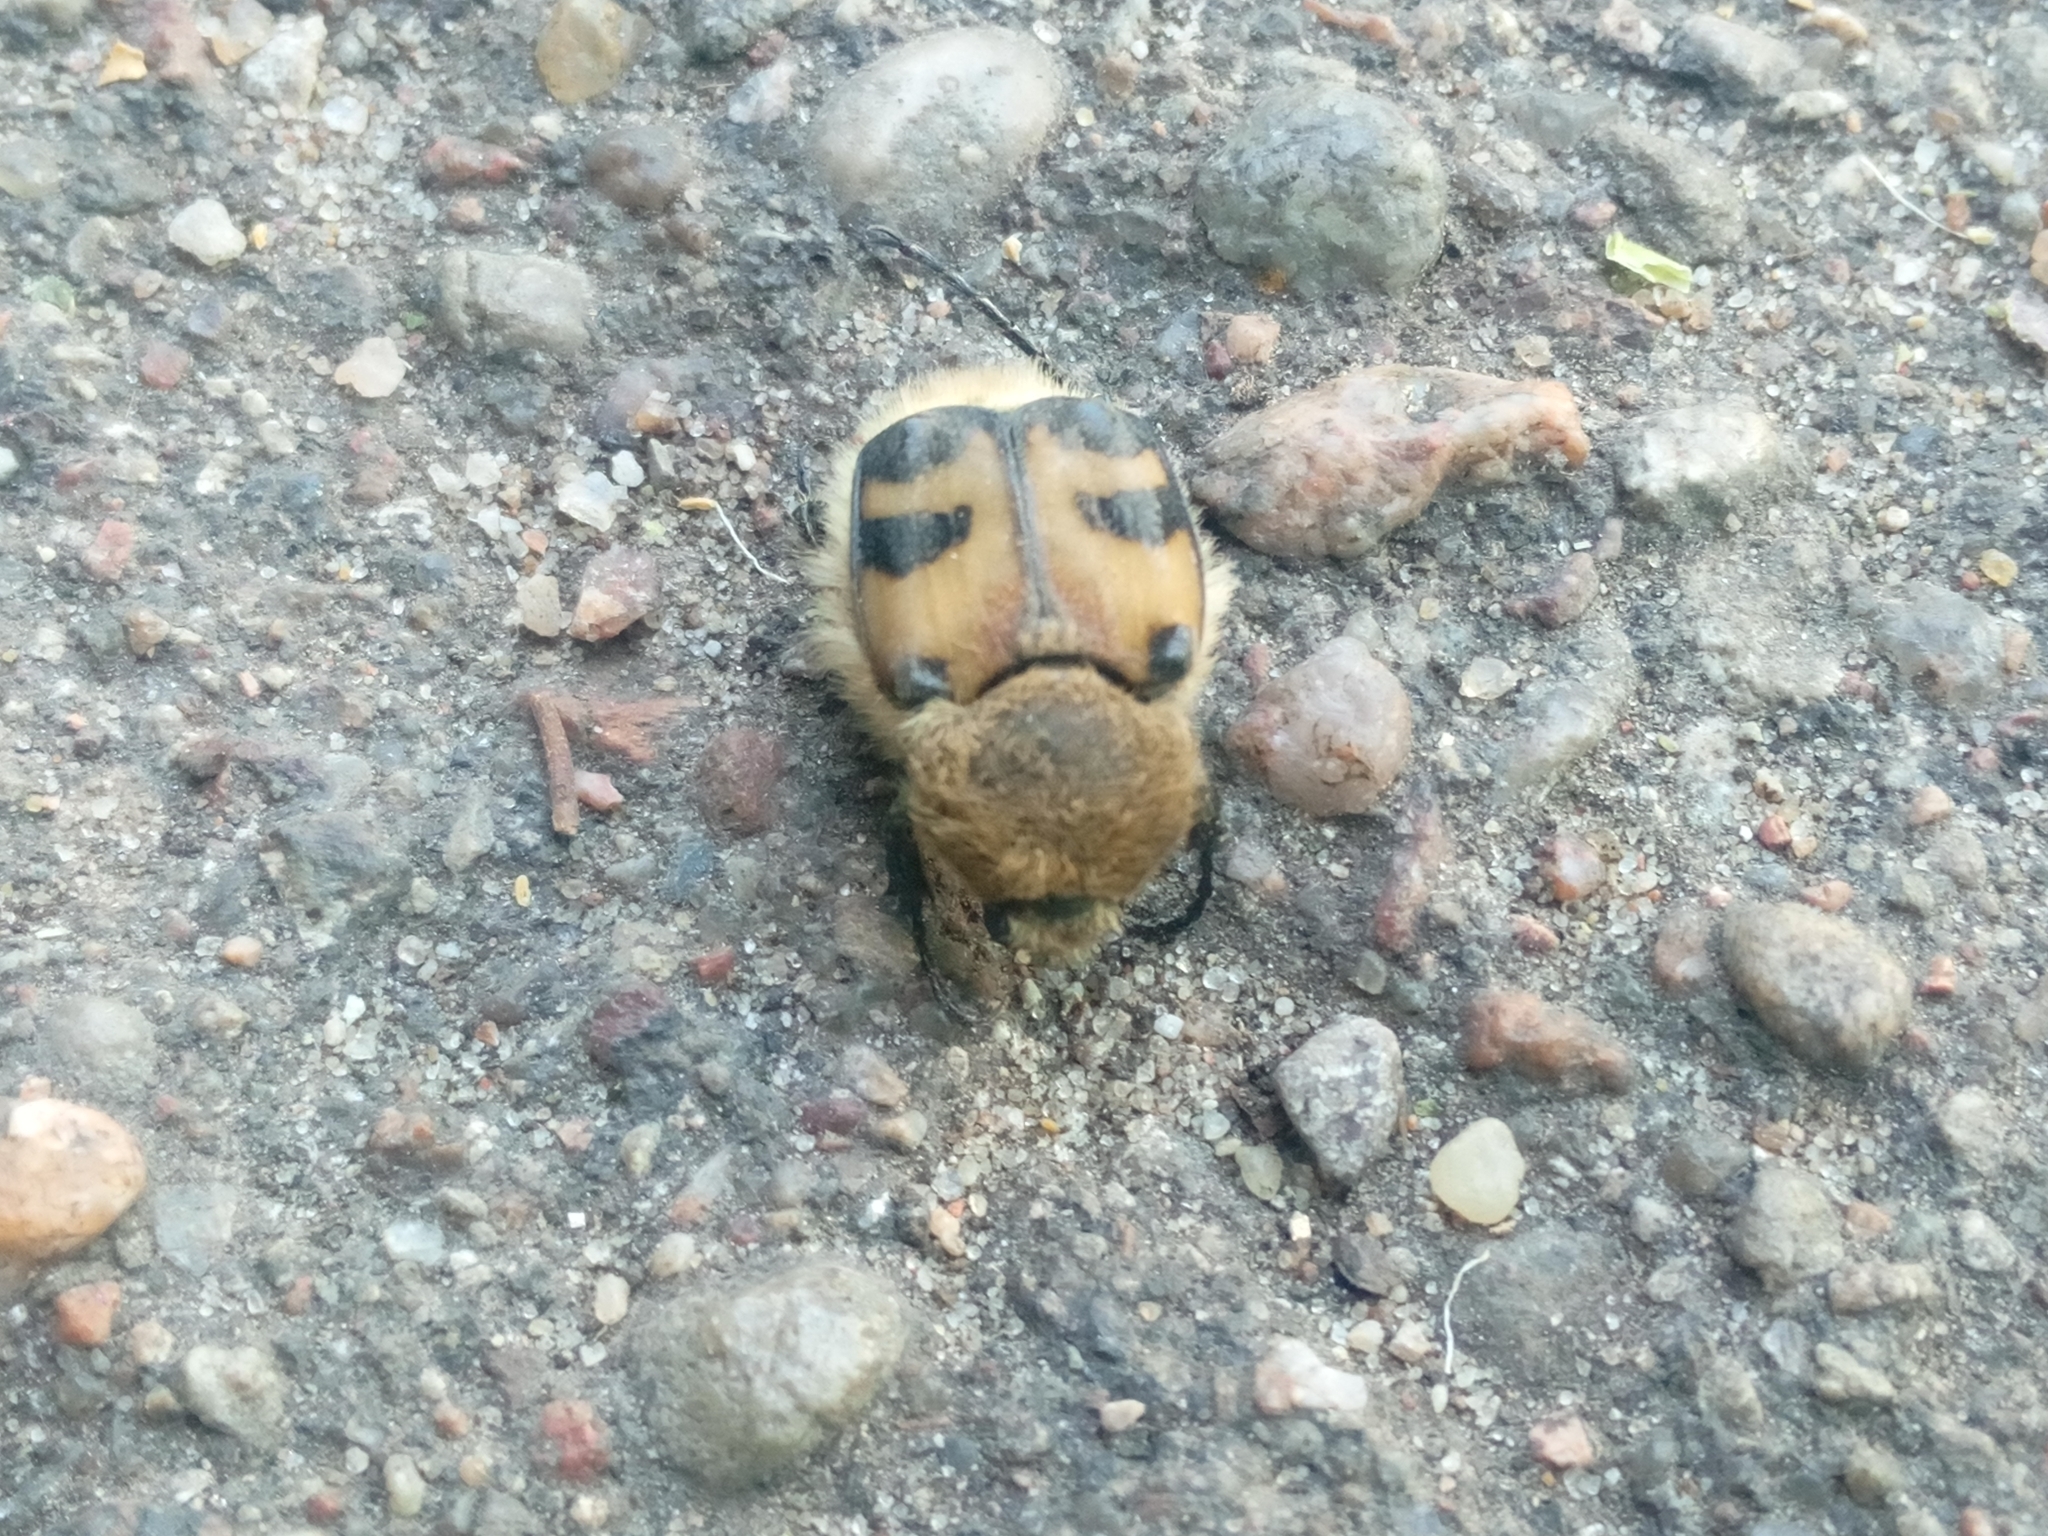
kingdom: Animalia
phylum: Arthropoda
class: Insecta
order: Coleoptera
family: Scarabaeidae
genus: Trichius
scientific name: Trichius fasciatus
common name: Bee beetle
